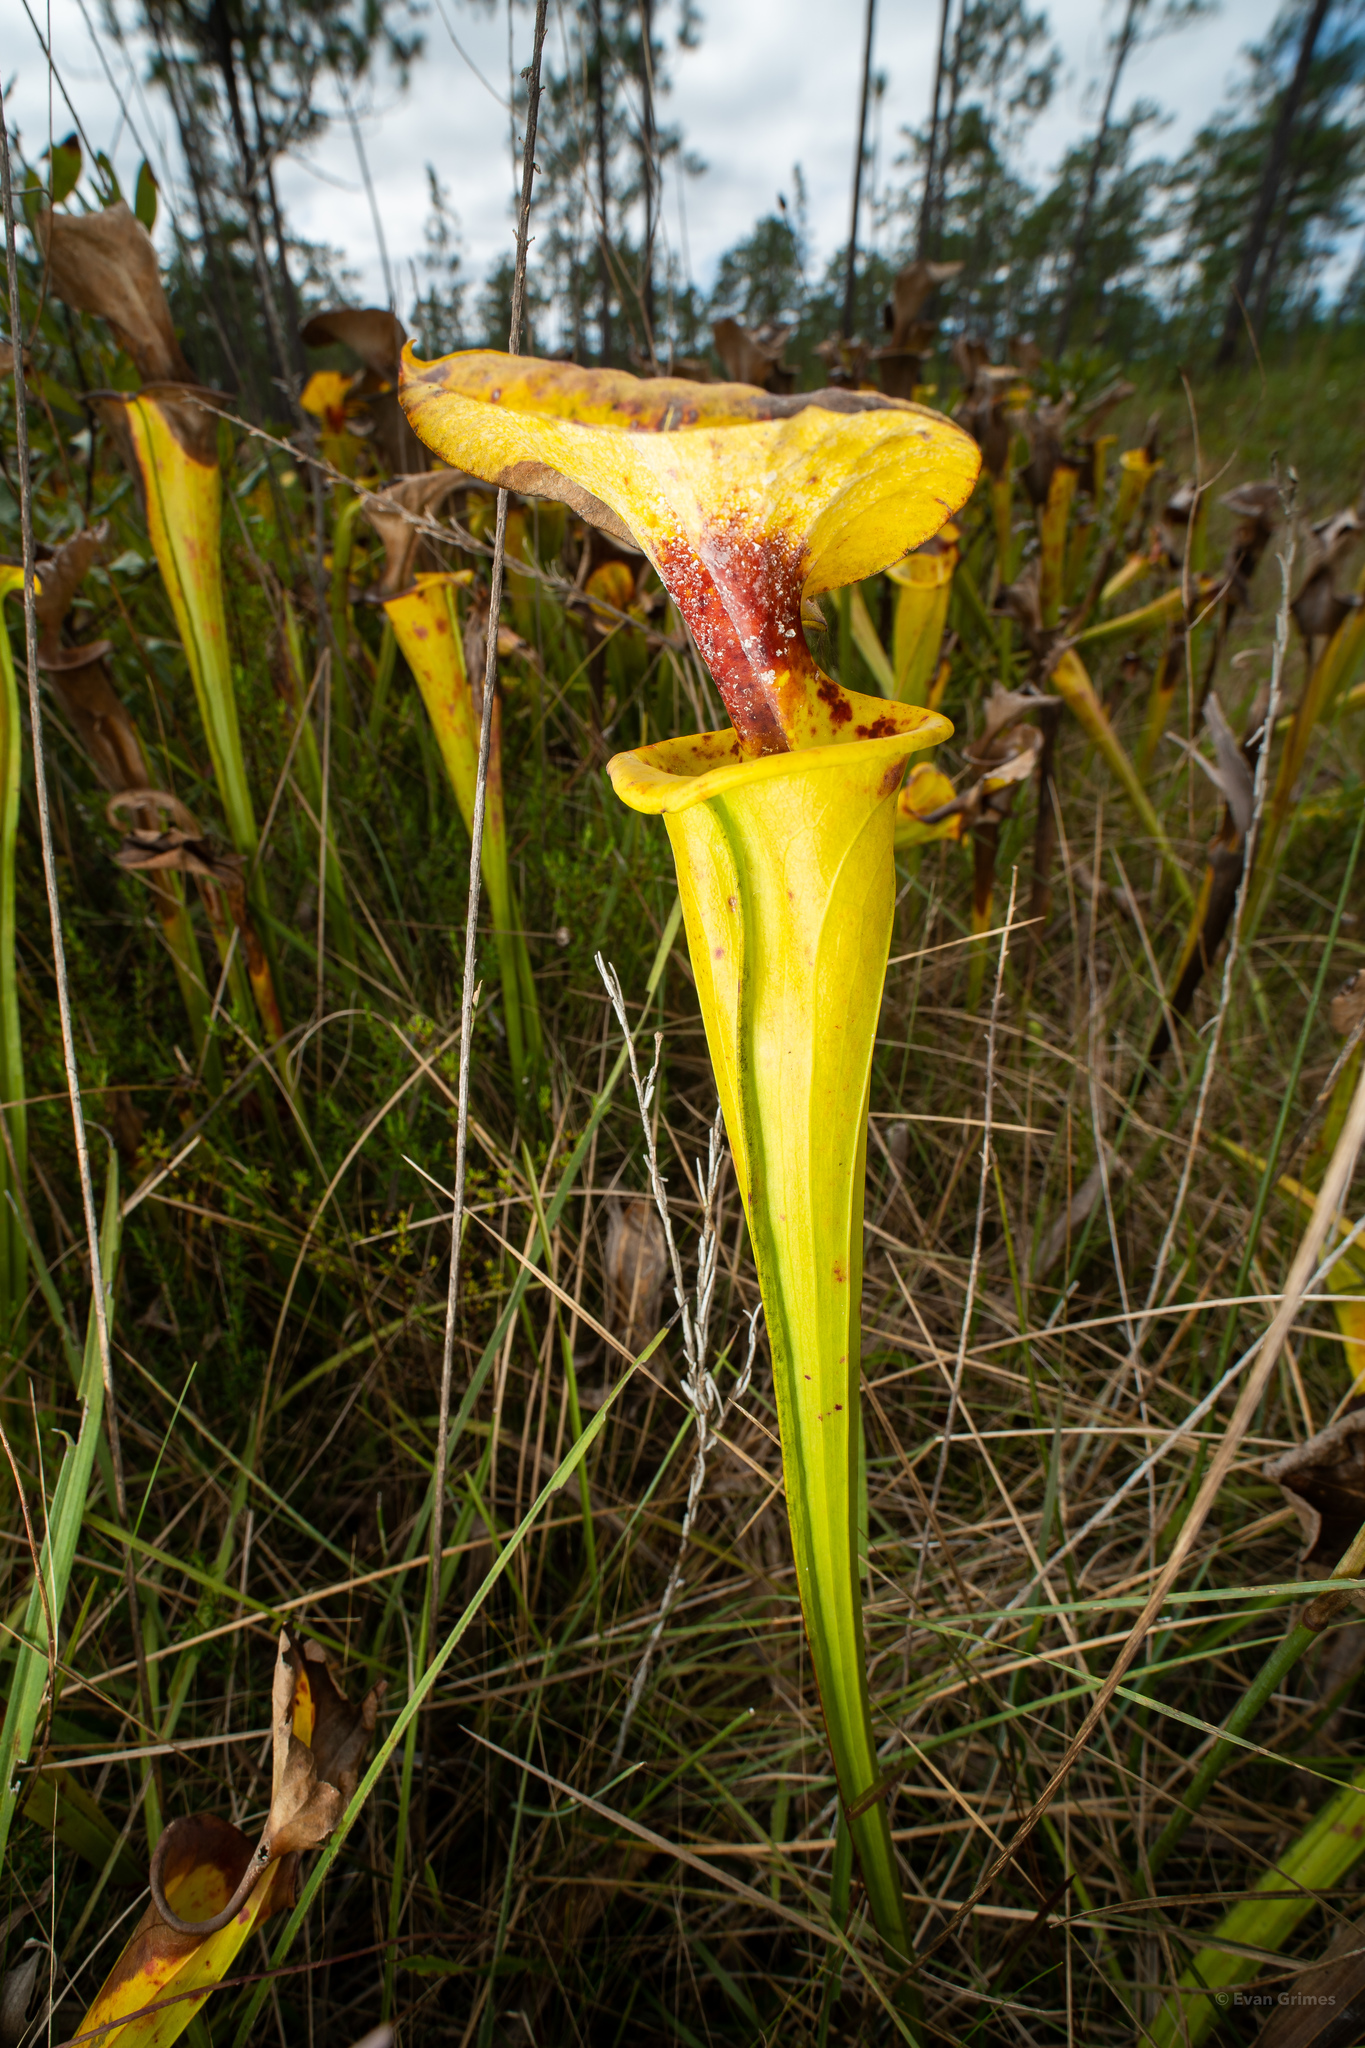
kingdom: Plantae
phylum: Tracheophyta
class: Magnoliopsida
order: Ericales
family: Sarraceniaceae
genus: Sarracenia
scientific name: Sarracenia flava
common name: Trumpets
